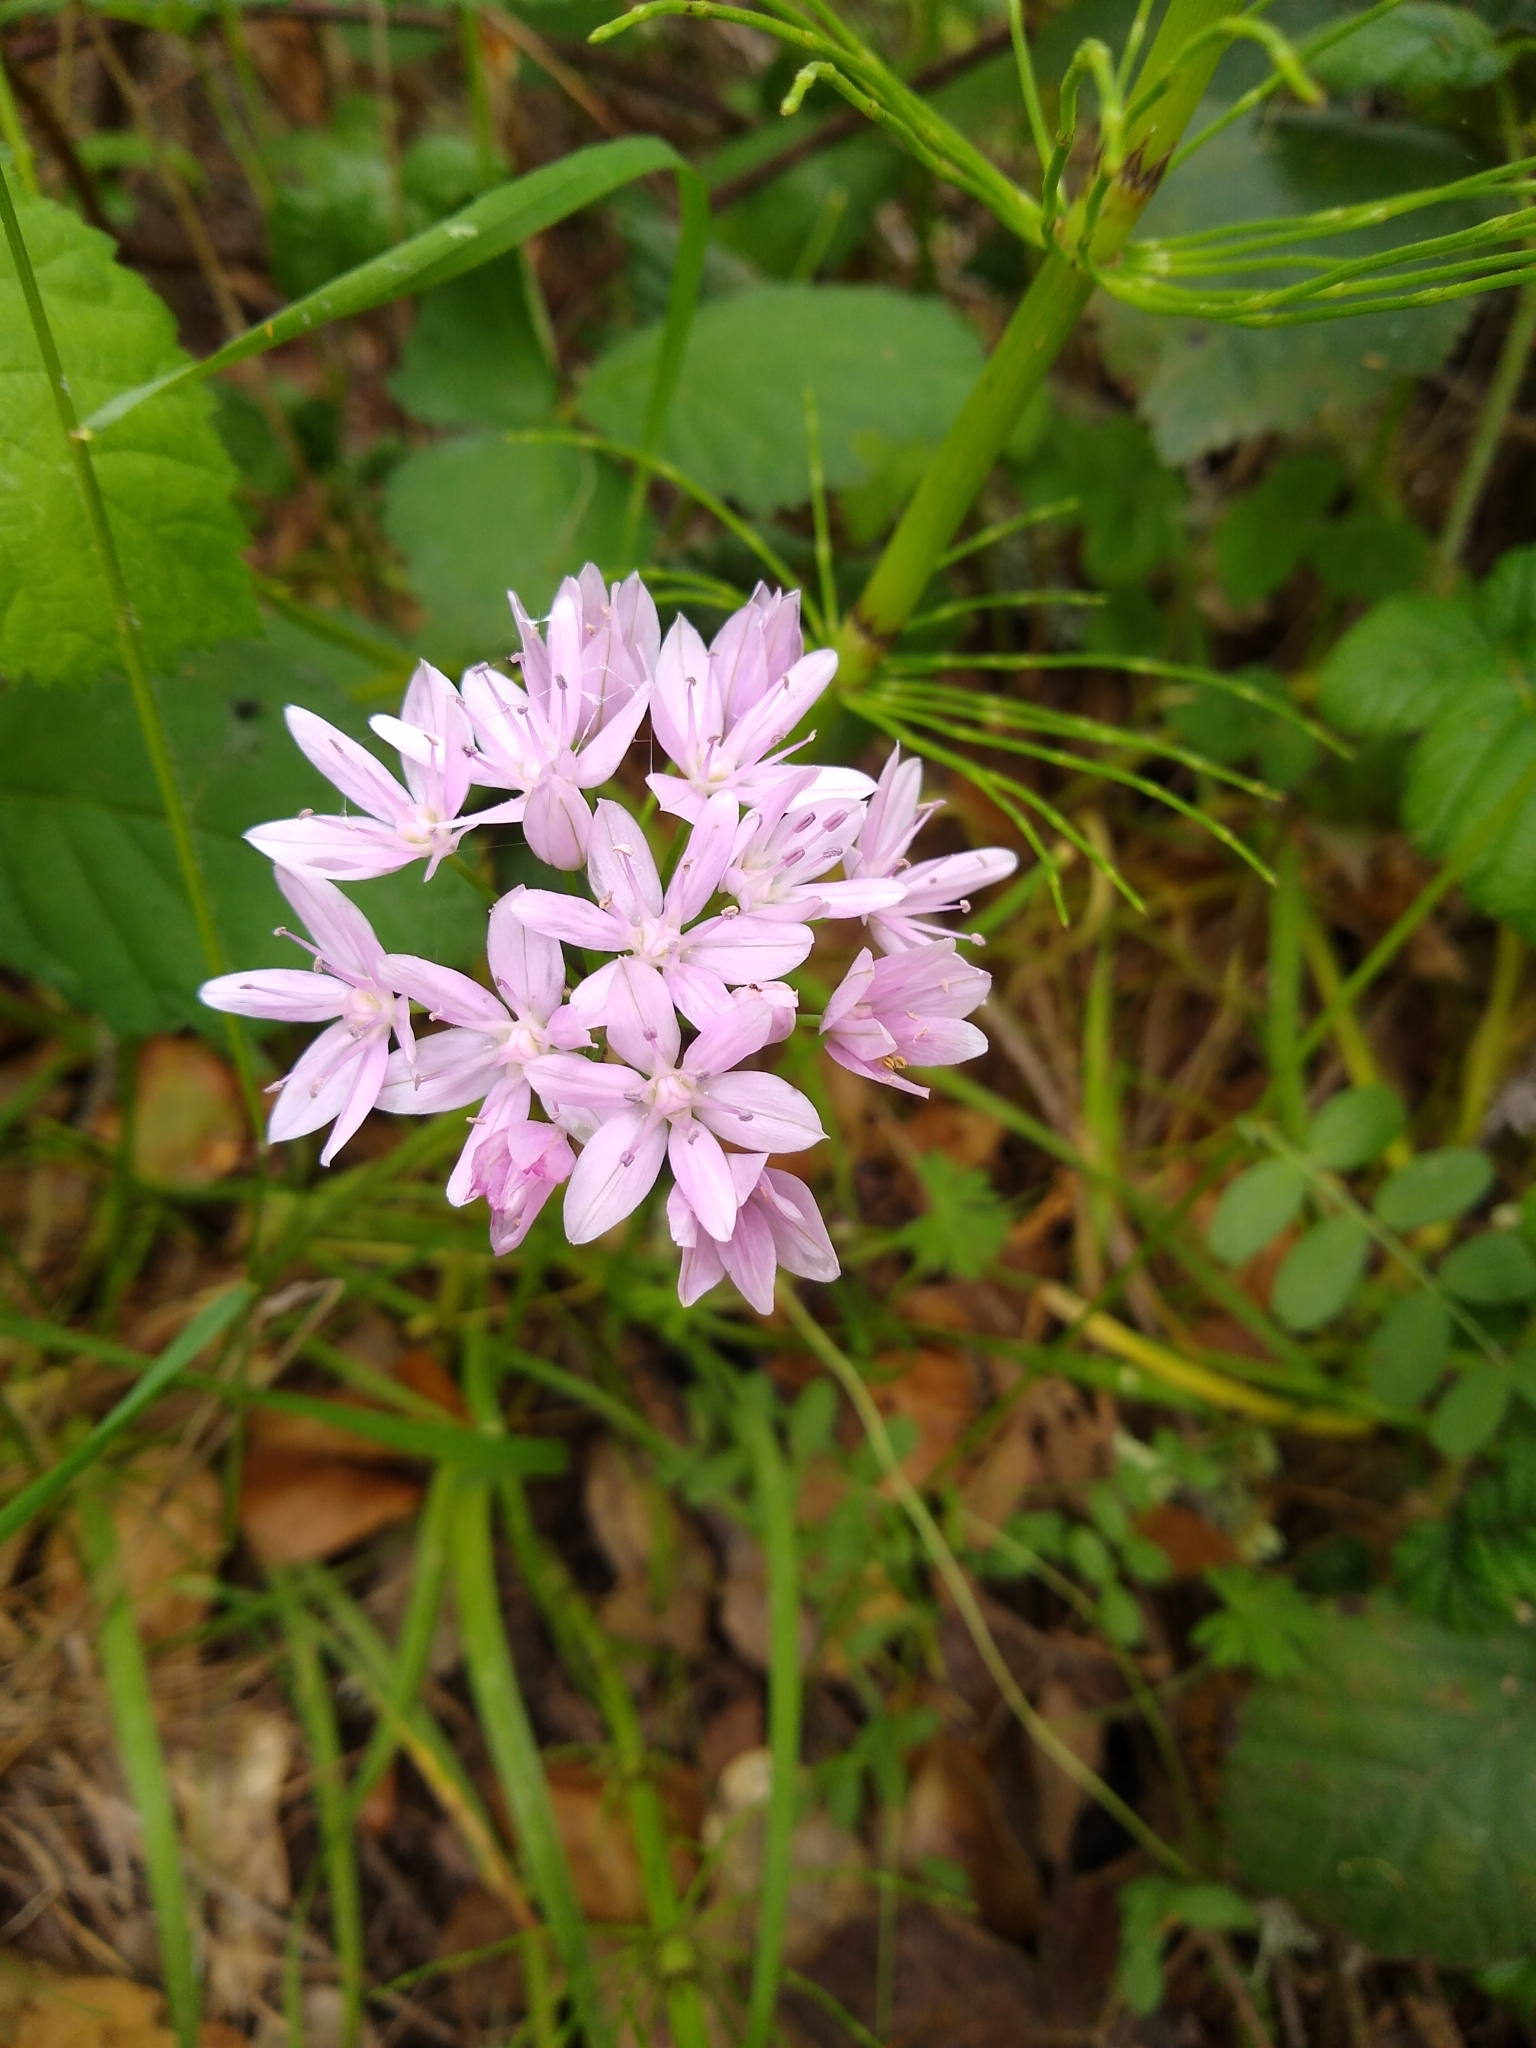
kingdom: Plantae
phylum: Tracheophyta
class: Liliopsida
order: Asparagales
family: Amaryllidaceae
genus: Allium
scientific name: Allium unifolium
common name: American garlic
